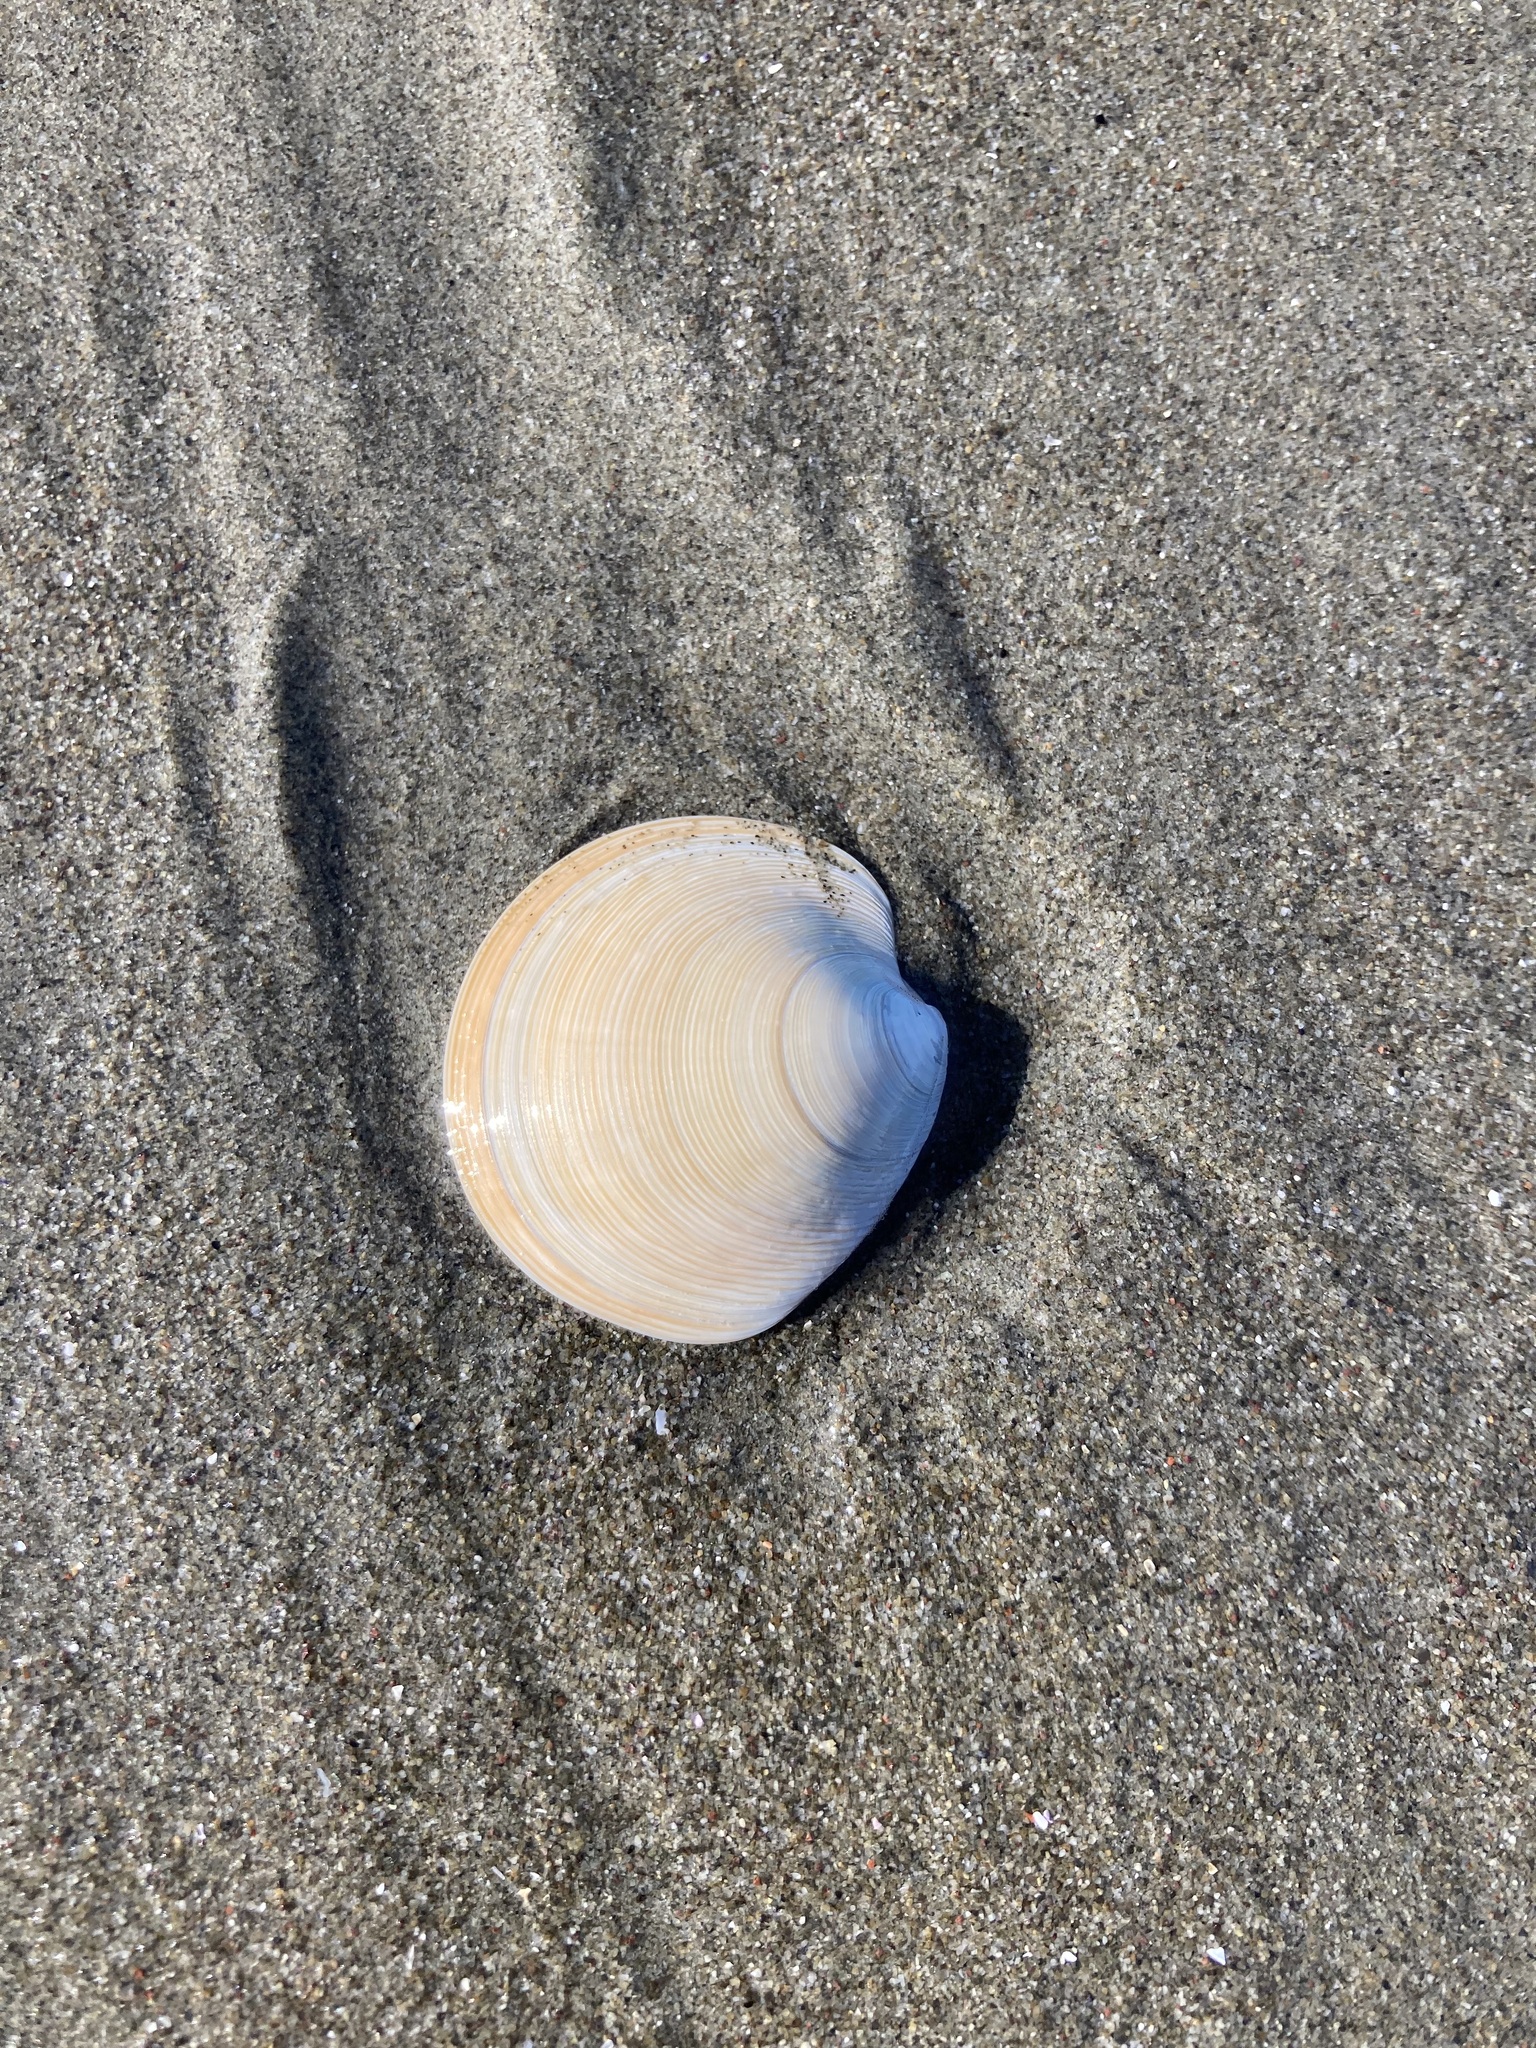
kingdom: Animalia
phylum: Mollusca
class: Bivalvia
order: Venerida
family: Veneridae
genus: Dosinia
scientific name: Dosinia subrosea
